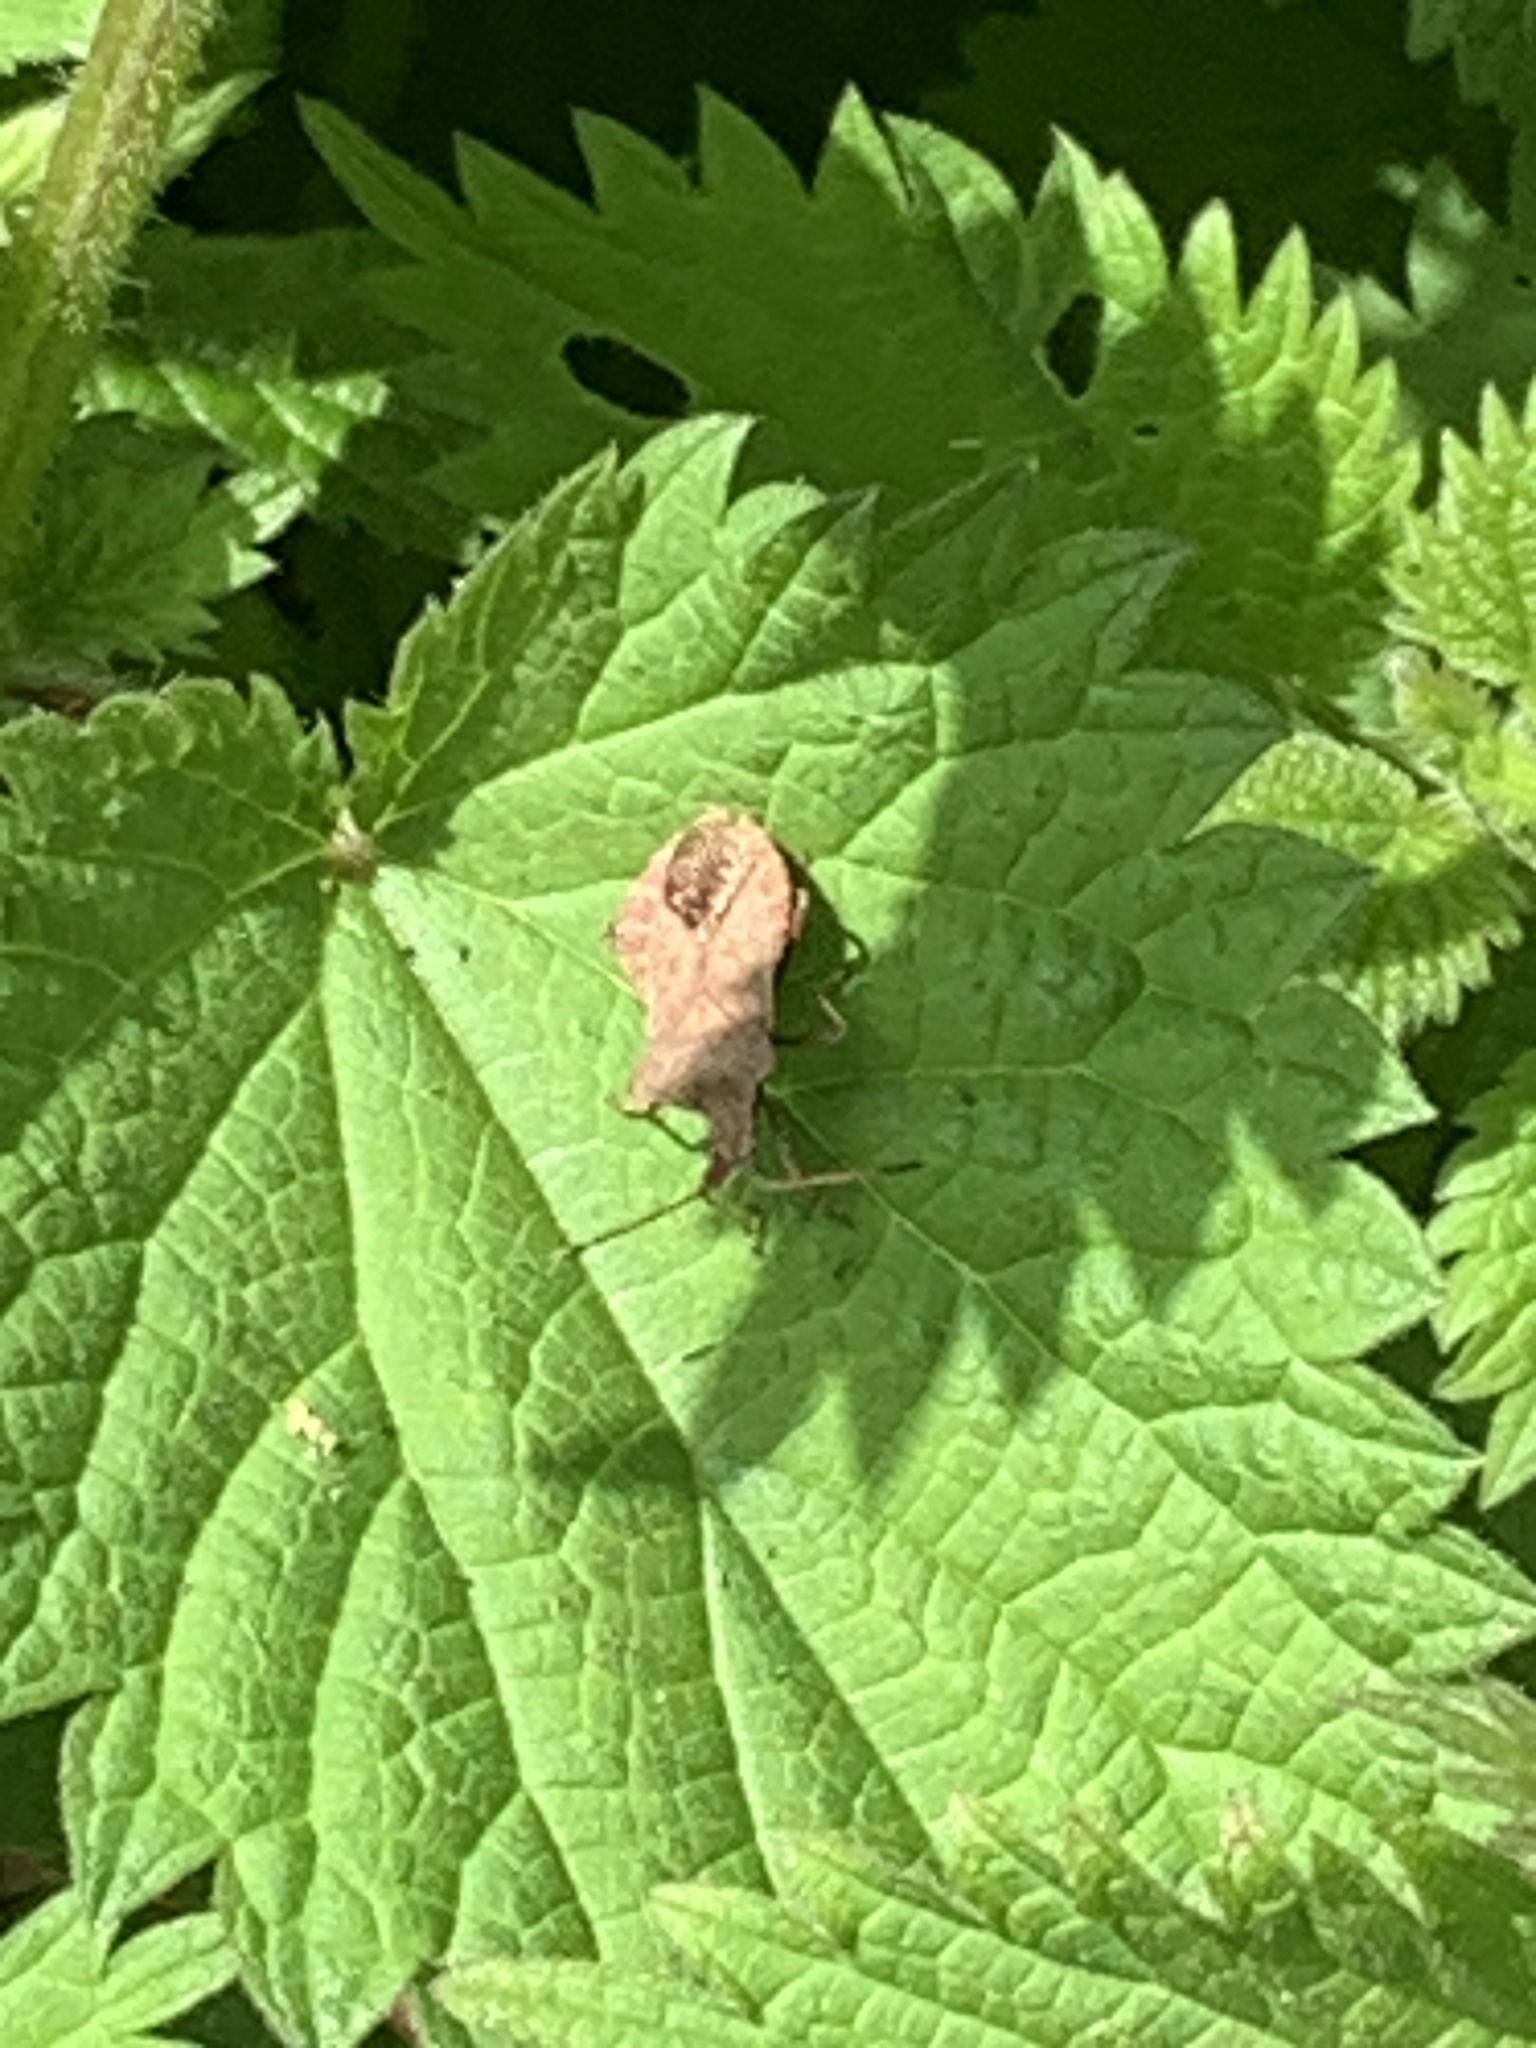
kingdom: Animalia
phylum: Arthropoda
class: Insecta
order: Hemiptera
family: Coreidae
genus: Coreus
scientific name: Coreus marginatus
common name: Dock bug
